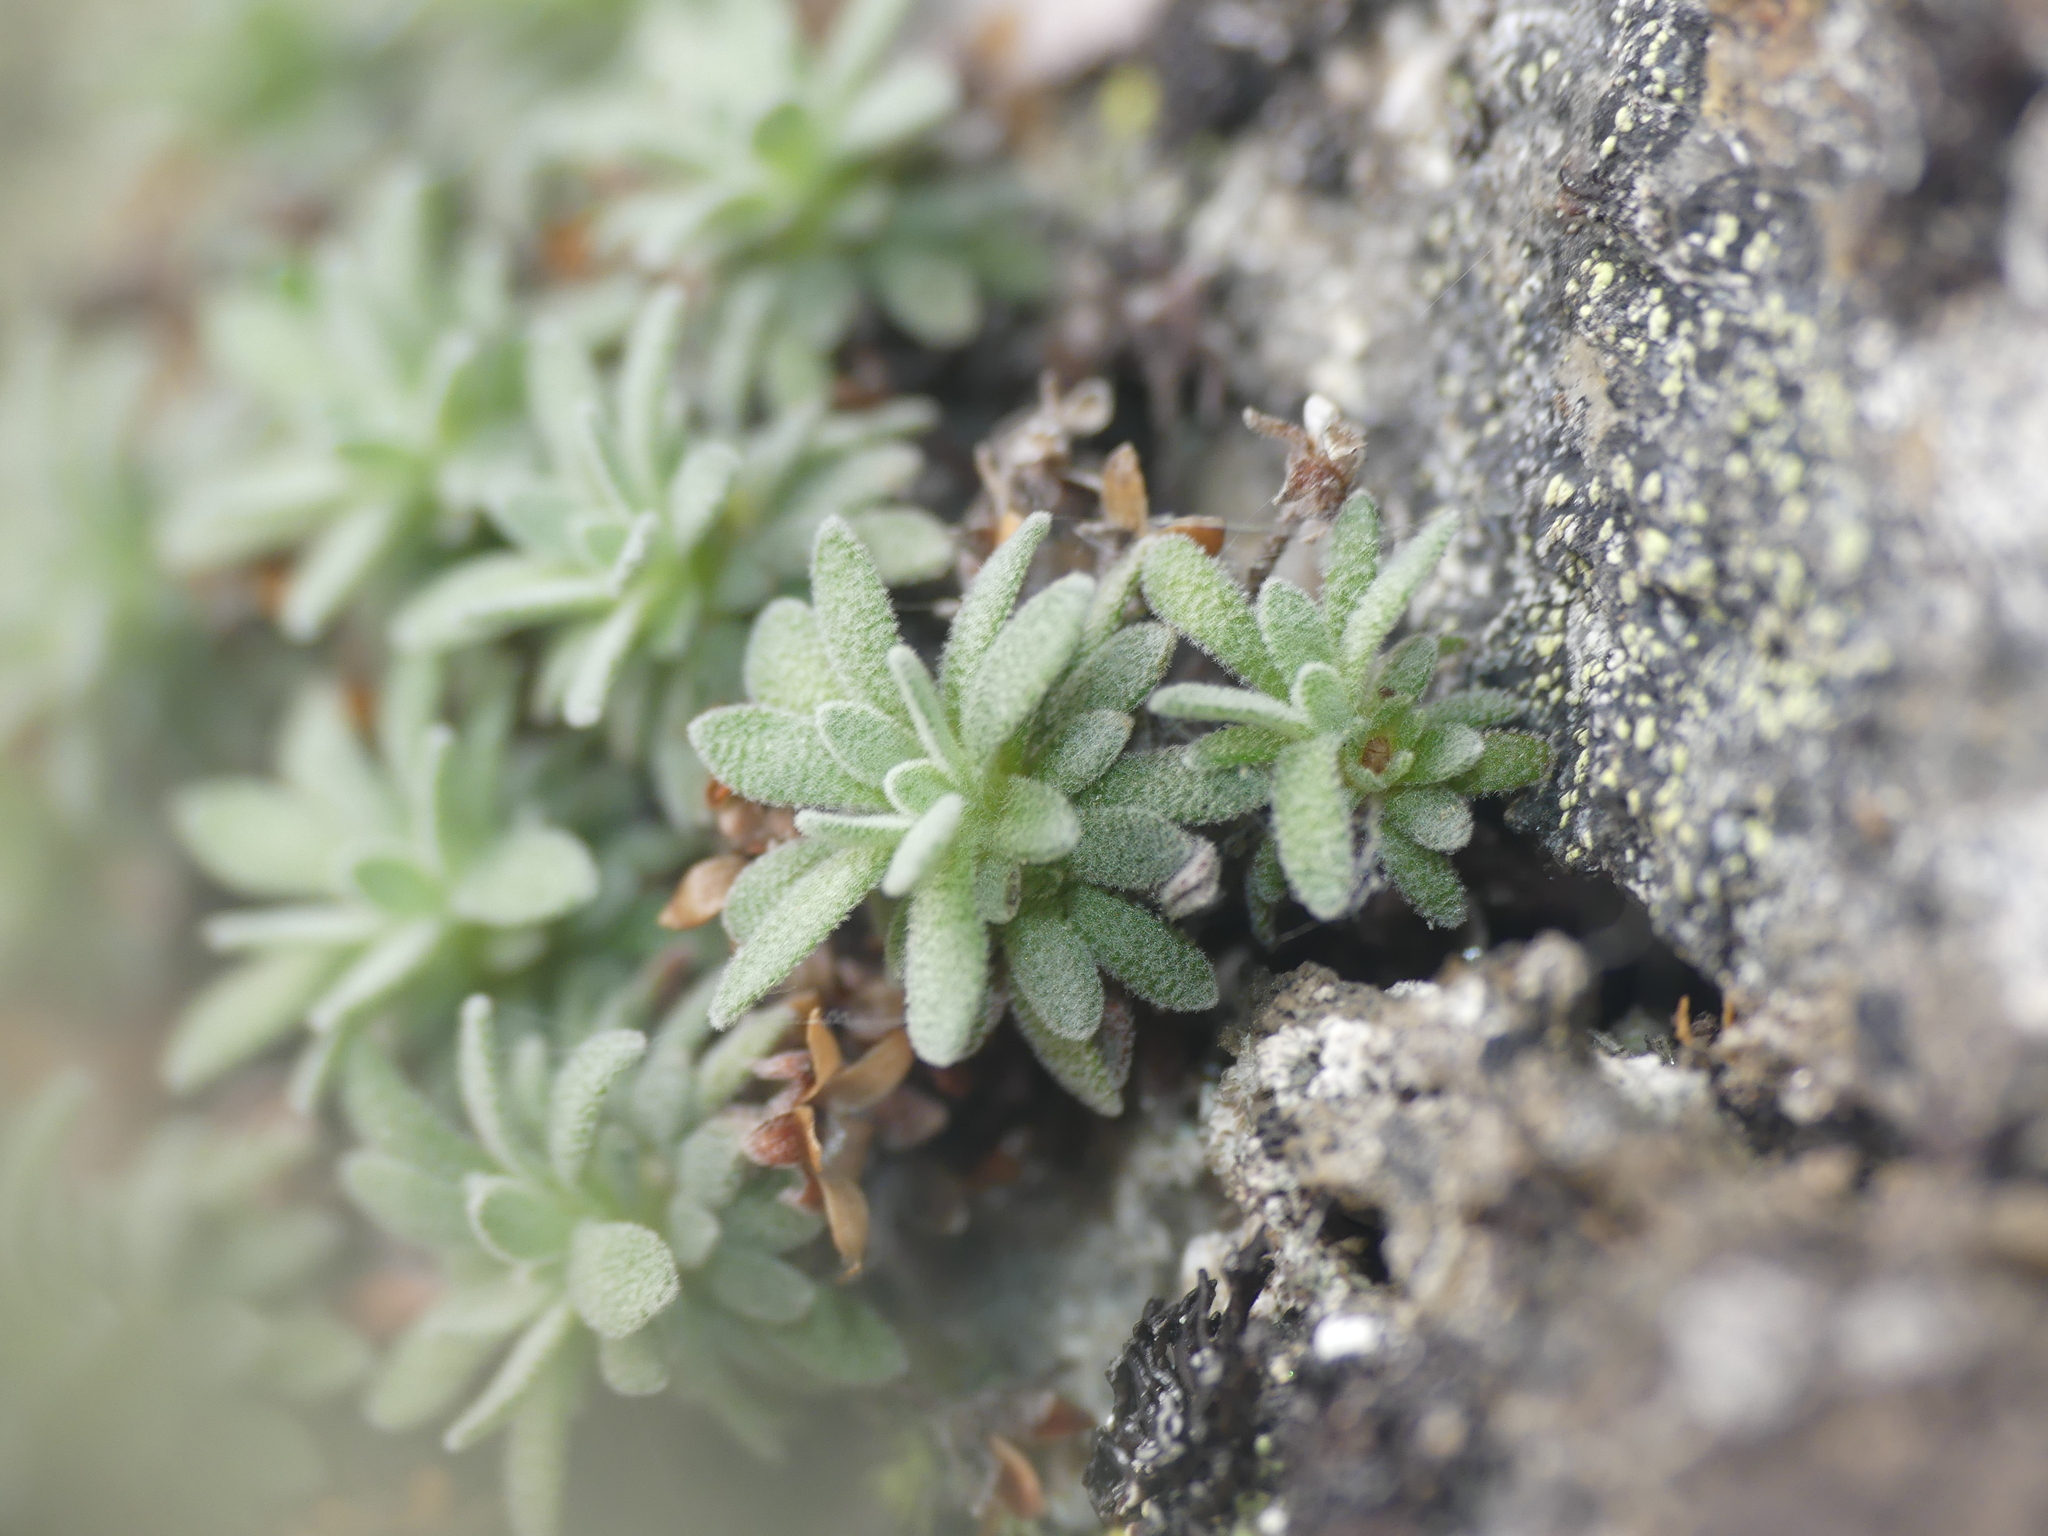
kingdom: Plantae
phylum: Tracheophyta
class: Magnoliopsida
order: Ericales
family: Primulaceae
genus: Androsace
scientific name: Androsace argentea
